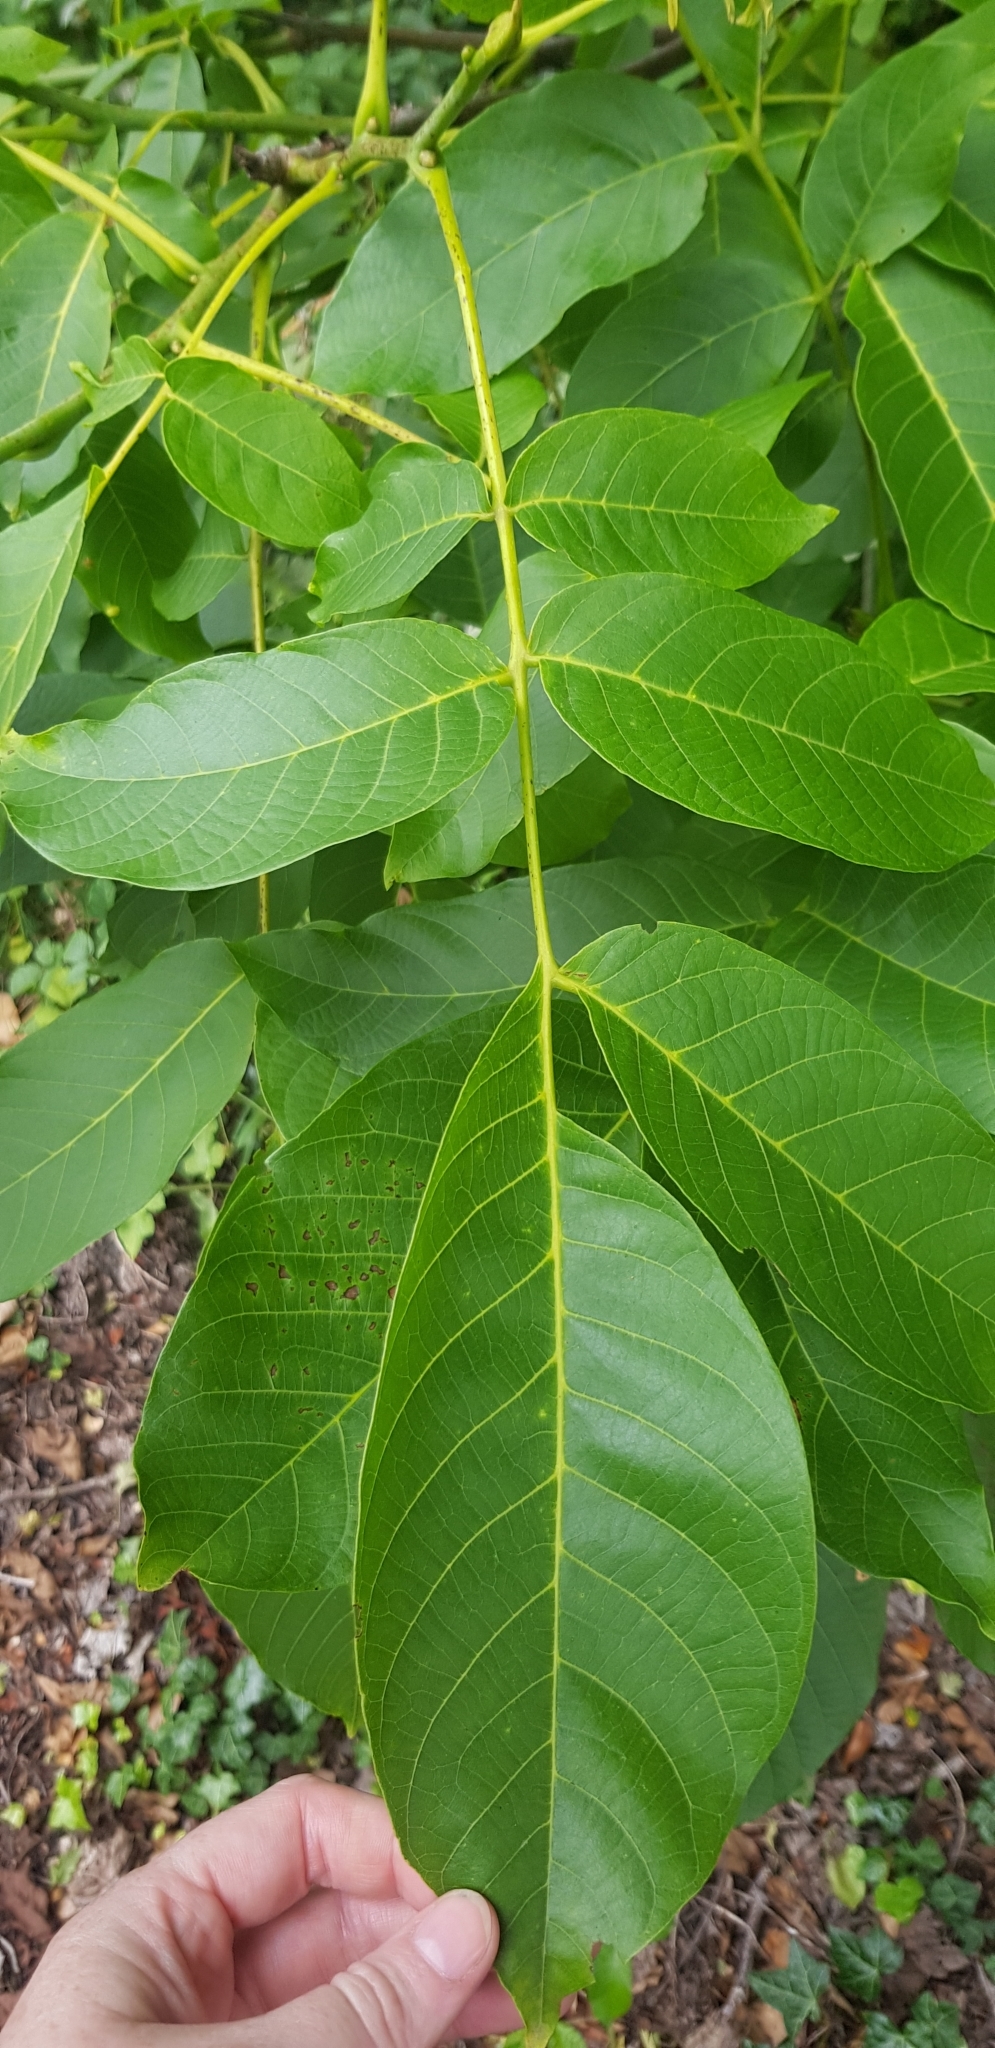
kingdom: Plantae
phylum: Tracheophyta
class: Magnoliopsida
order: Fagales
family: Juglandaceae
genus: Juglans
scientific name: Juglans regia
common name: Walnut
